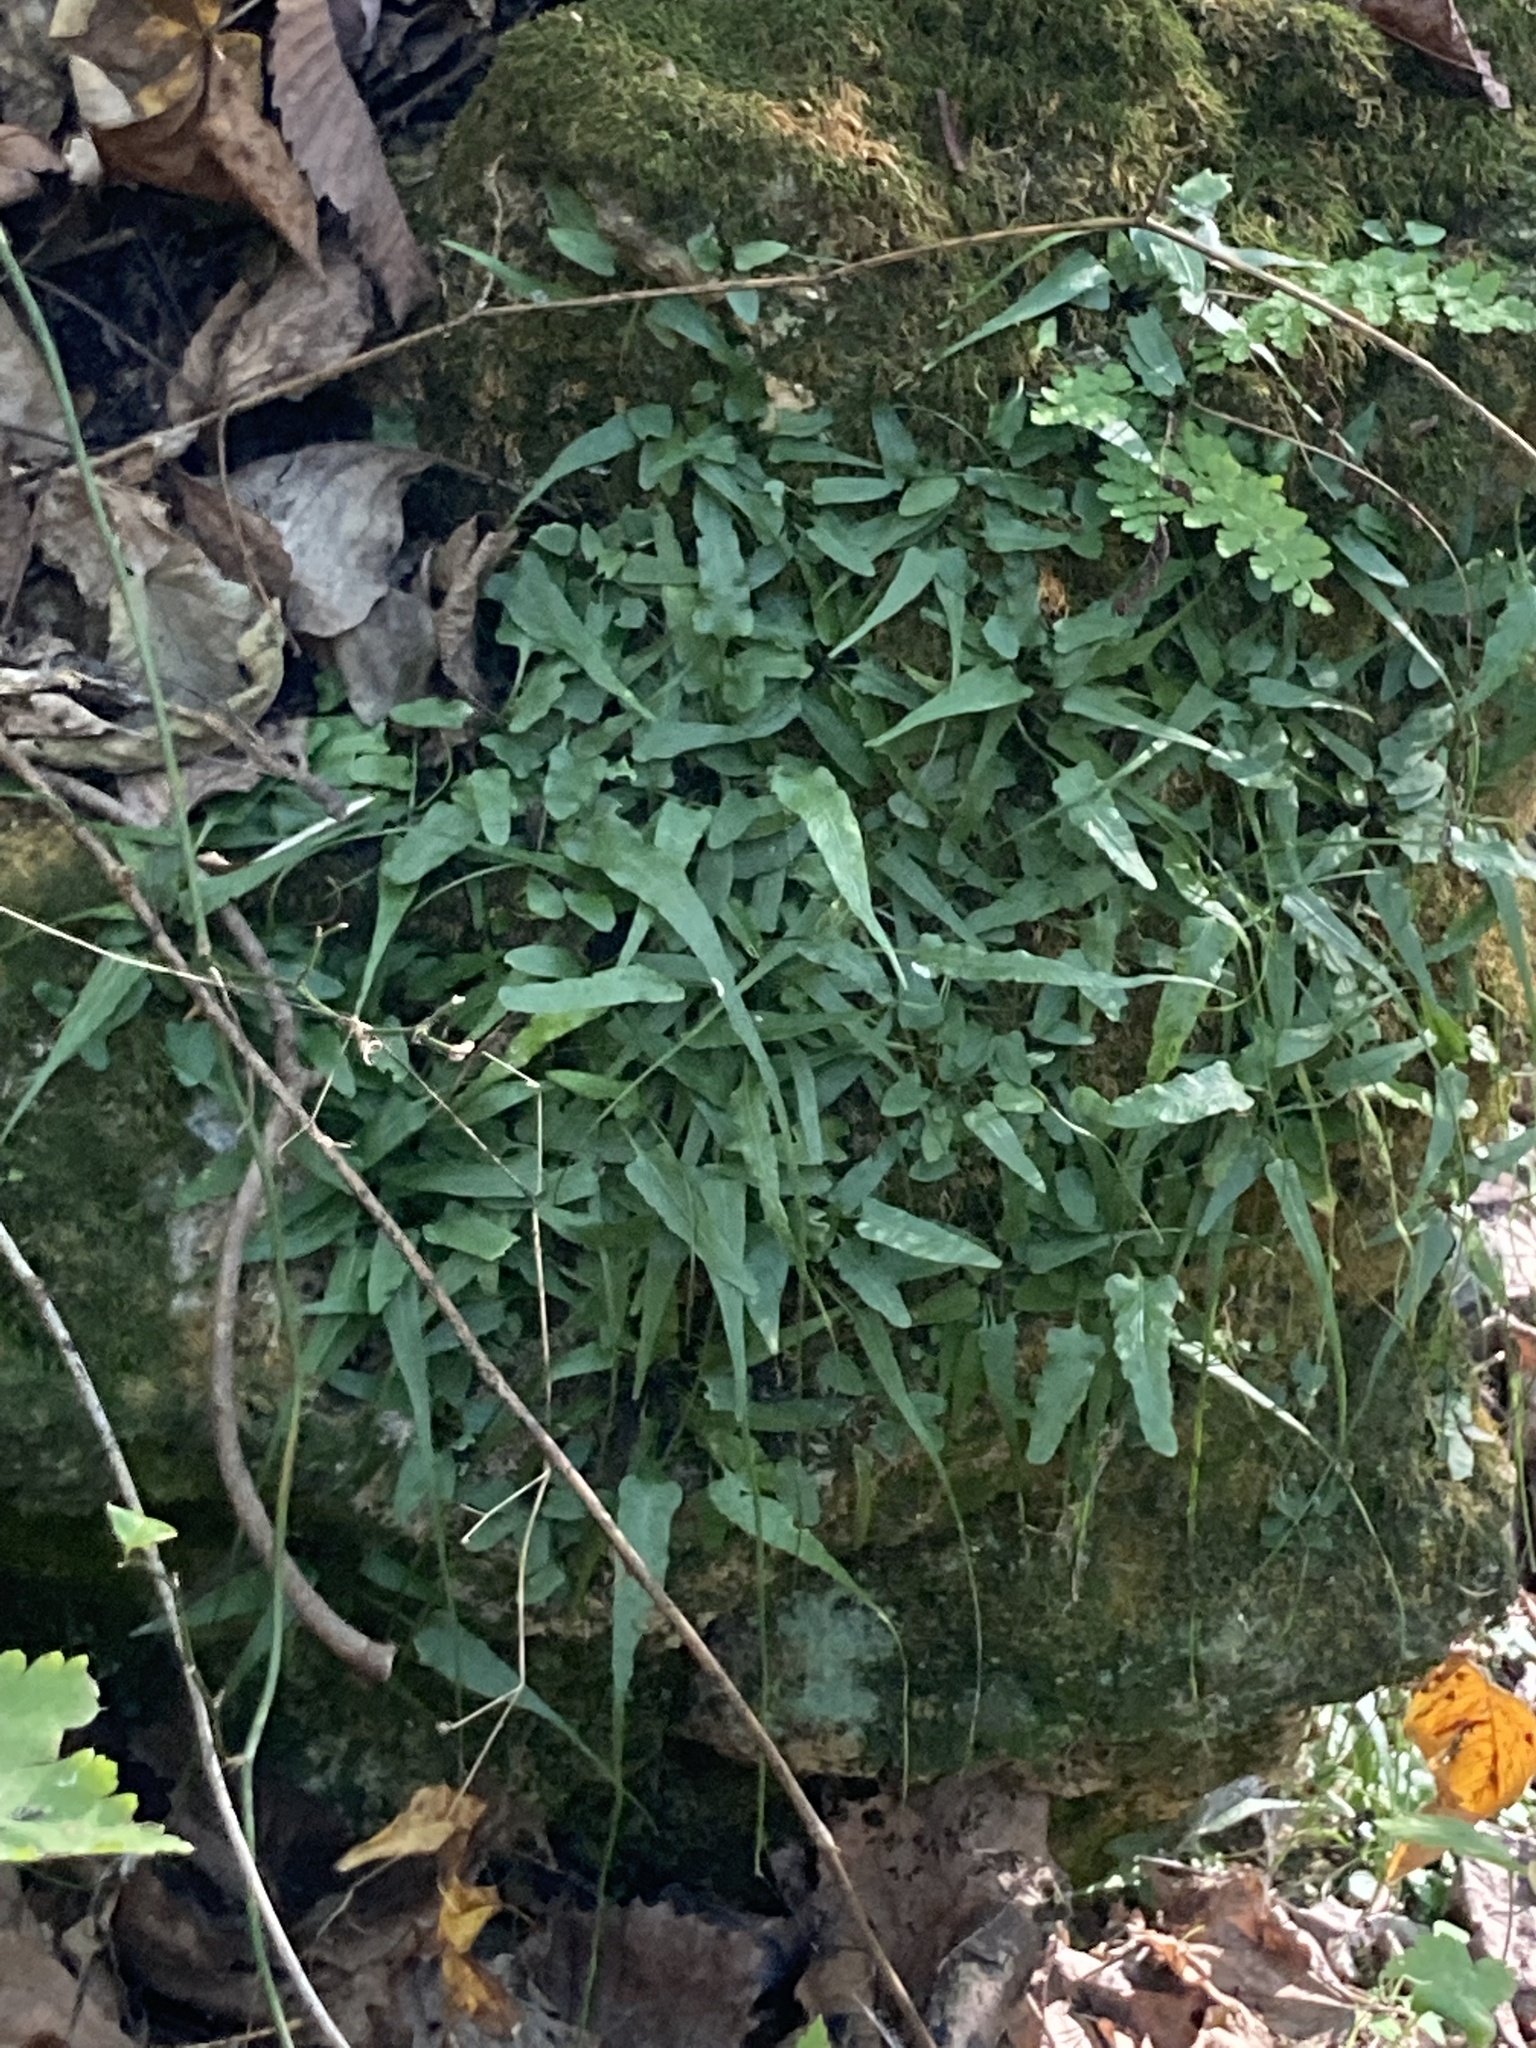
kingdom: Plantae
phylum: Tracheophyta
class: Polypodiopsida
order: Polypodiales
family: Aspleniaceae
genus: Asplenium
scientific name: Asplenium rhizophyllum
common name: Walking fern
